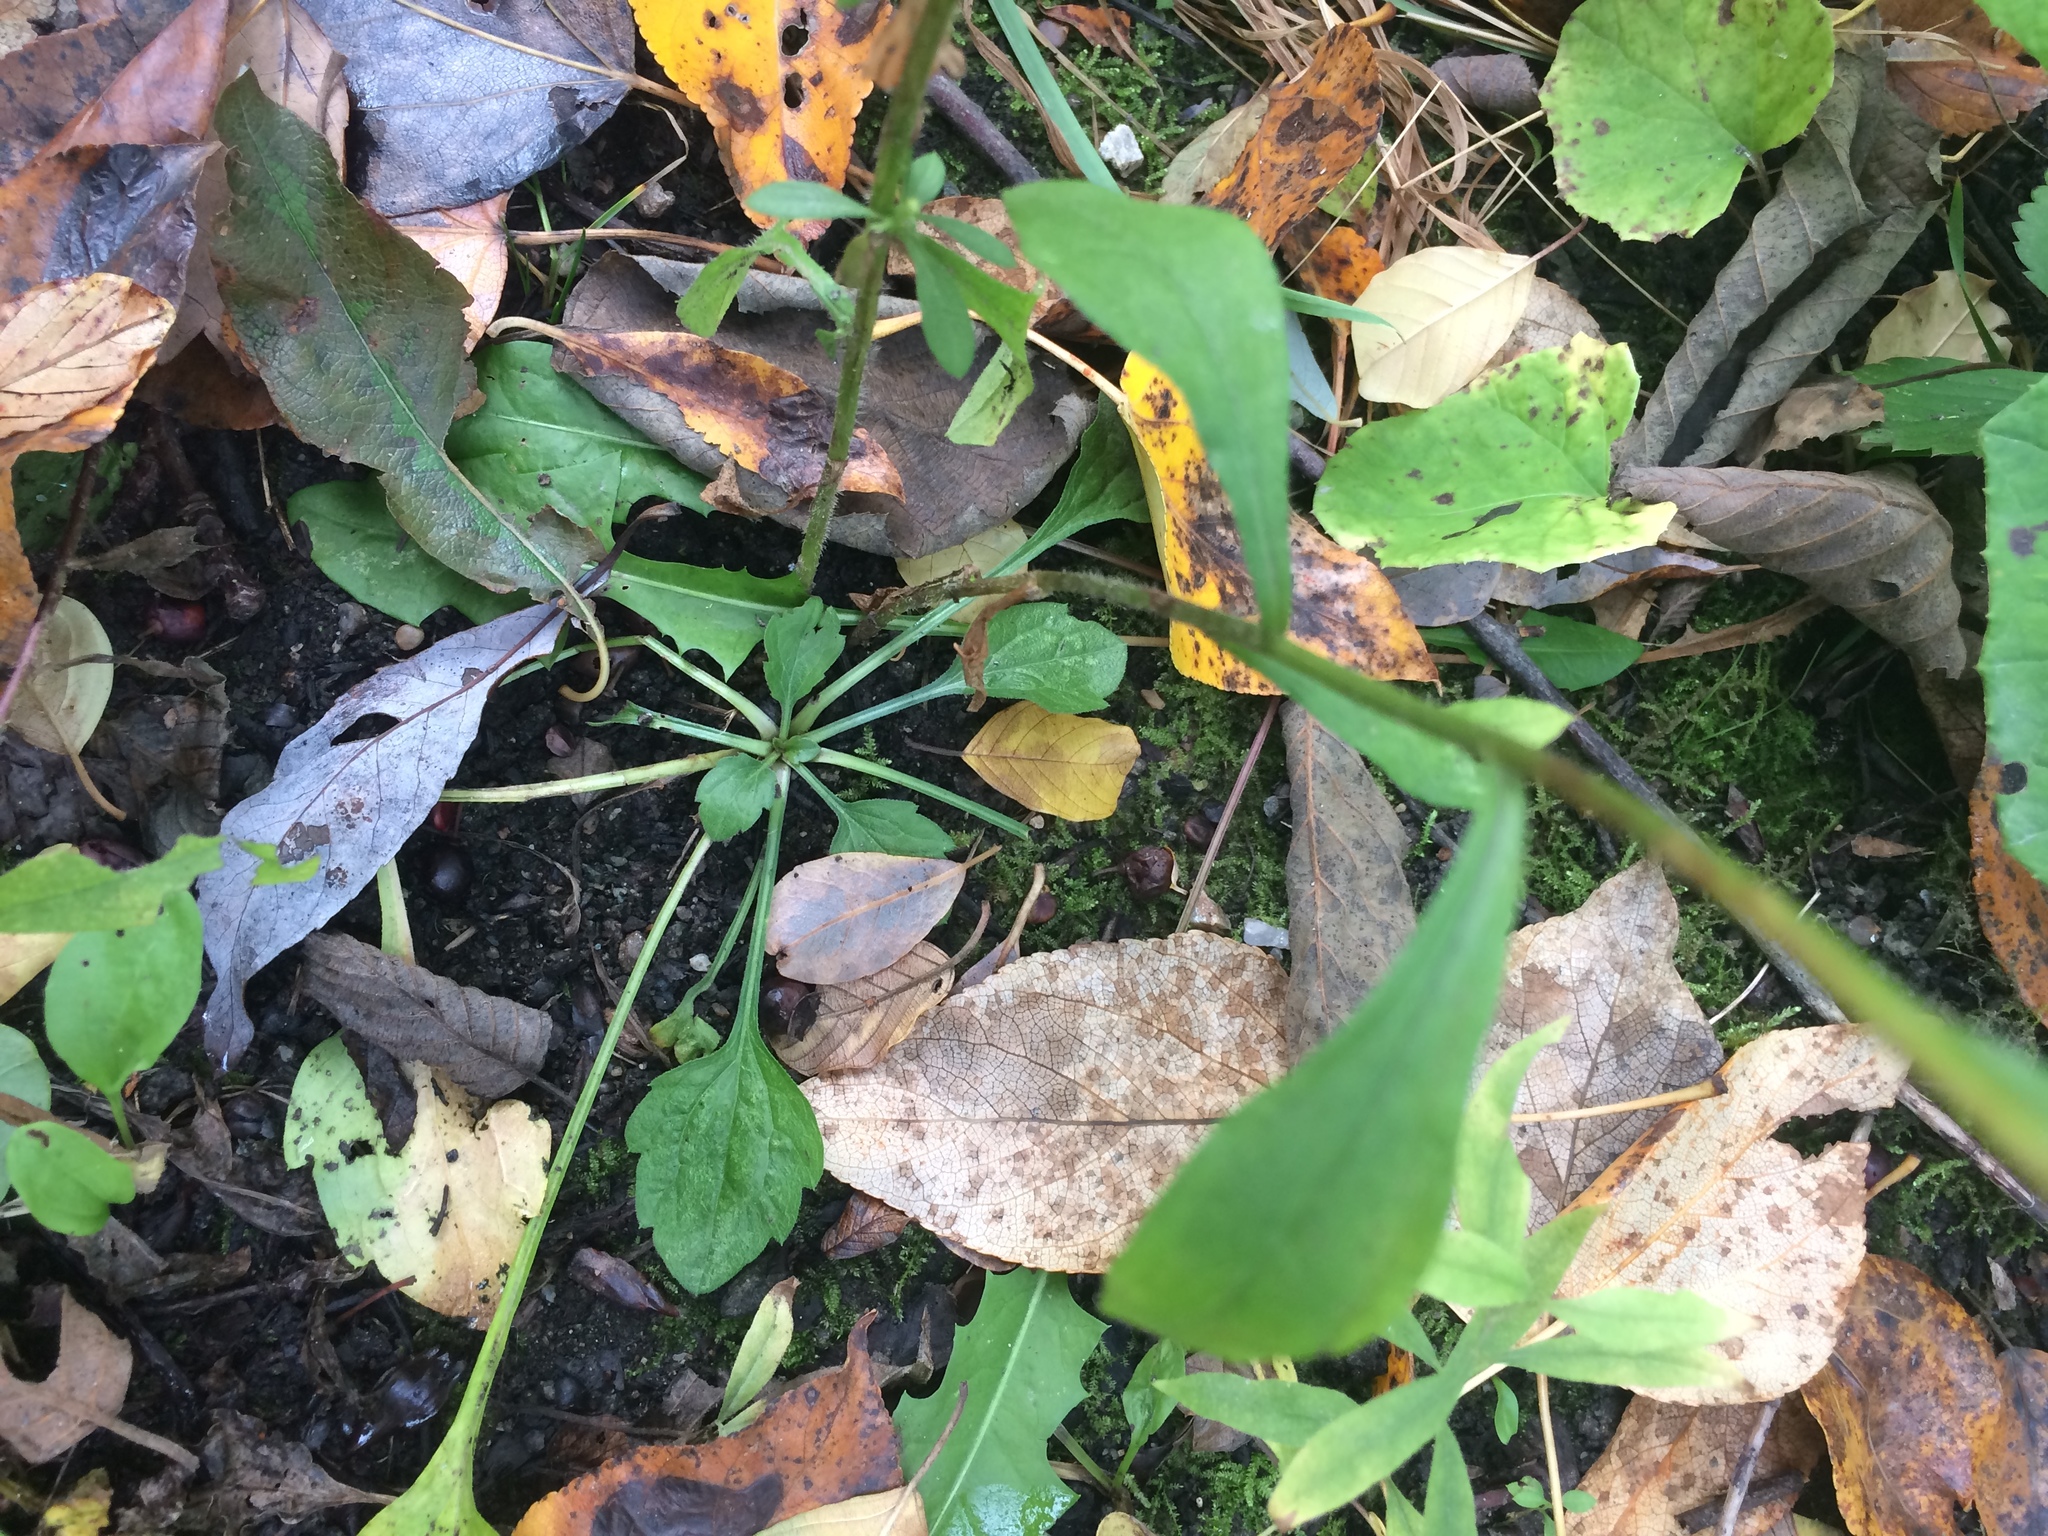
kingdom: Plantae
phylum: Tracheophyta
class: Magnoliopsida
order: Asterales
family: Asteraceae
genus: Erigeron
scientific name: Erigeron annuus
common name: Tall fleabane
